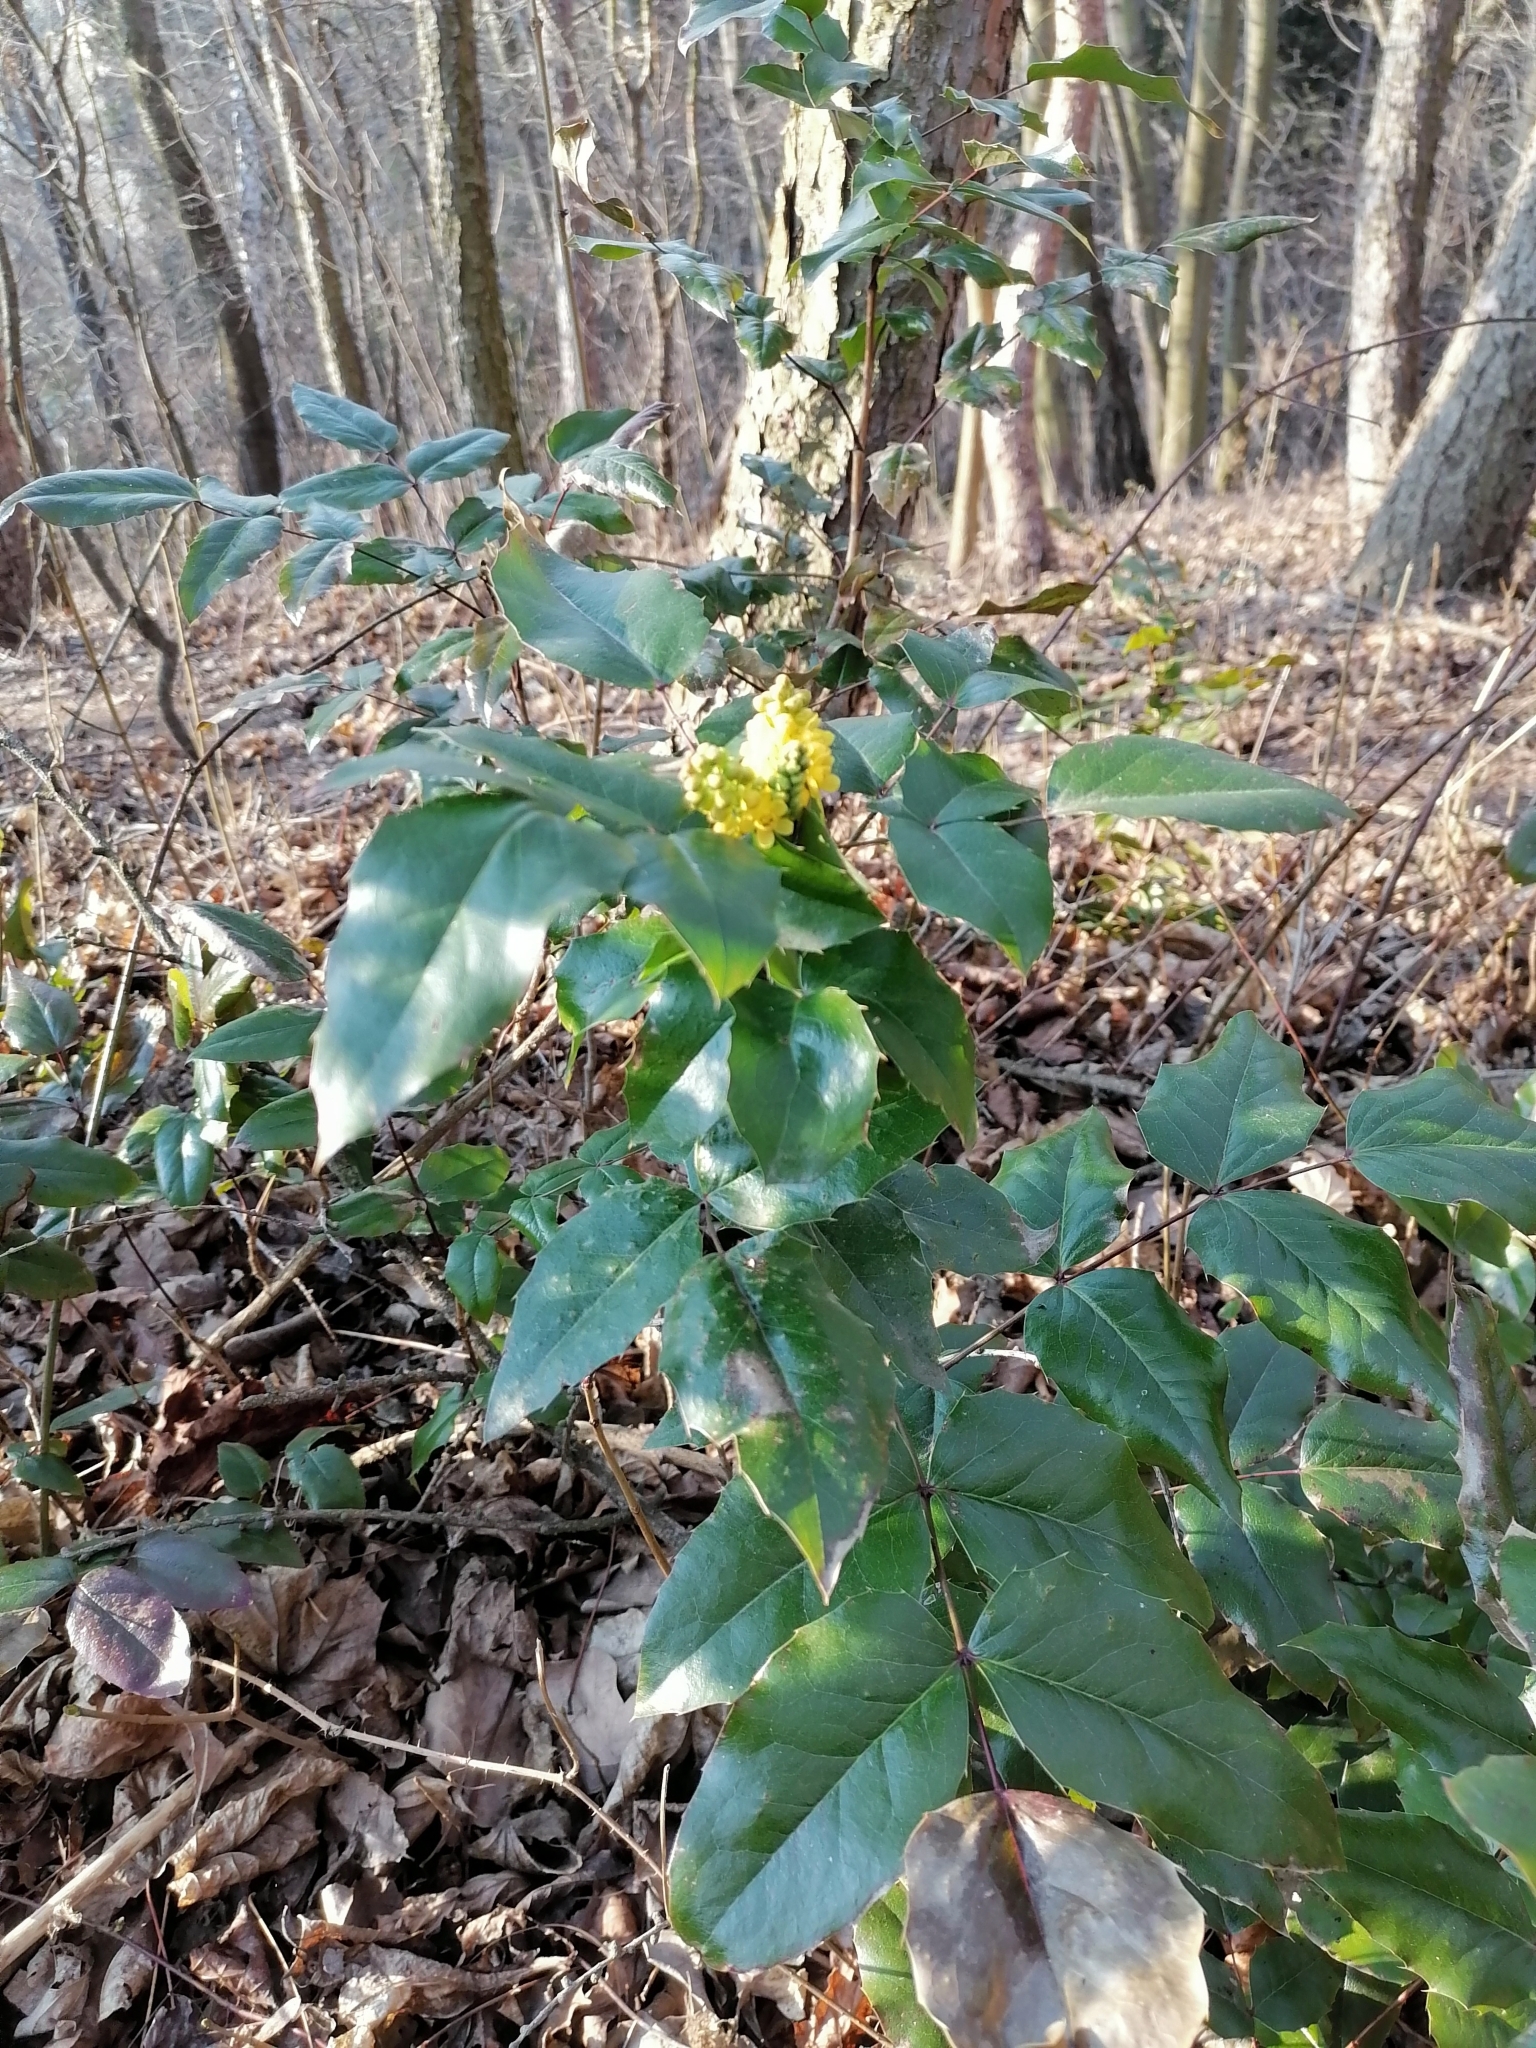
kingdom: Plantae
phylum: Tracheophyta
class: Magnoliopsida
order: Ranunculales
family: Berberidaceae
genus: Mahonia
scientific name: Mahonia aquifolium
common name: Oregon-grape
